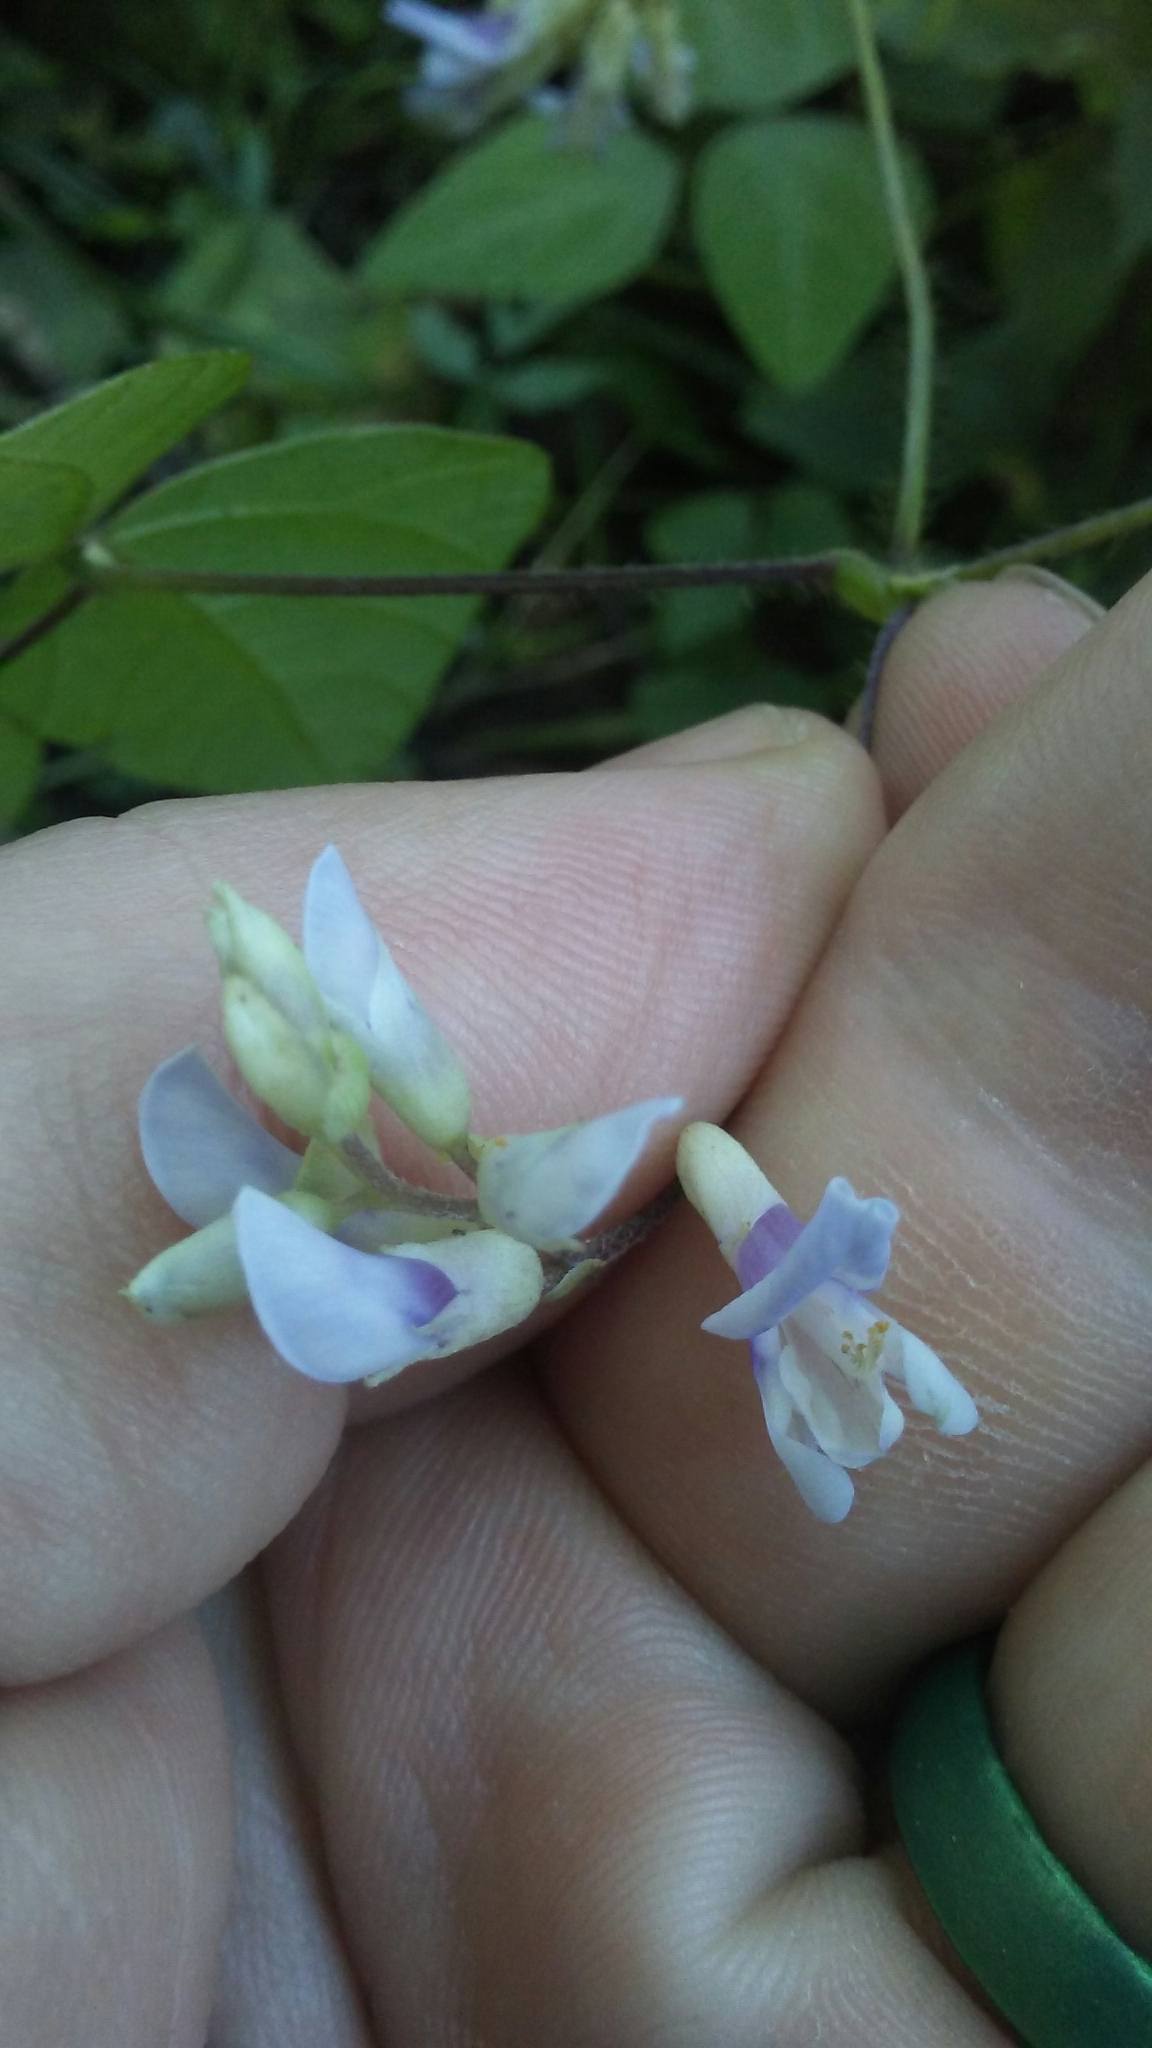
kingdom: Plantae
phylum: Tracheophyta
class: Magnoliopsida
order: Fabales
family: Fabaceae
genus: Amphicarpaea
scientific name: Amphicarpaea bracteata
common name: American hog peanut
